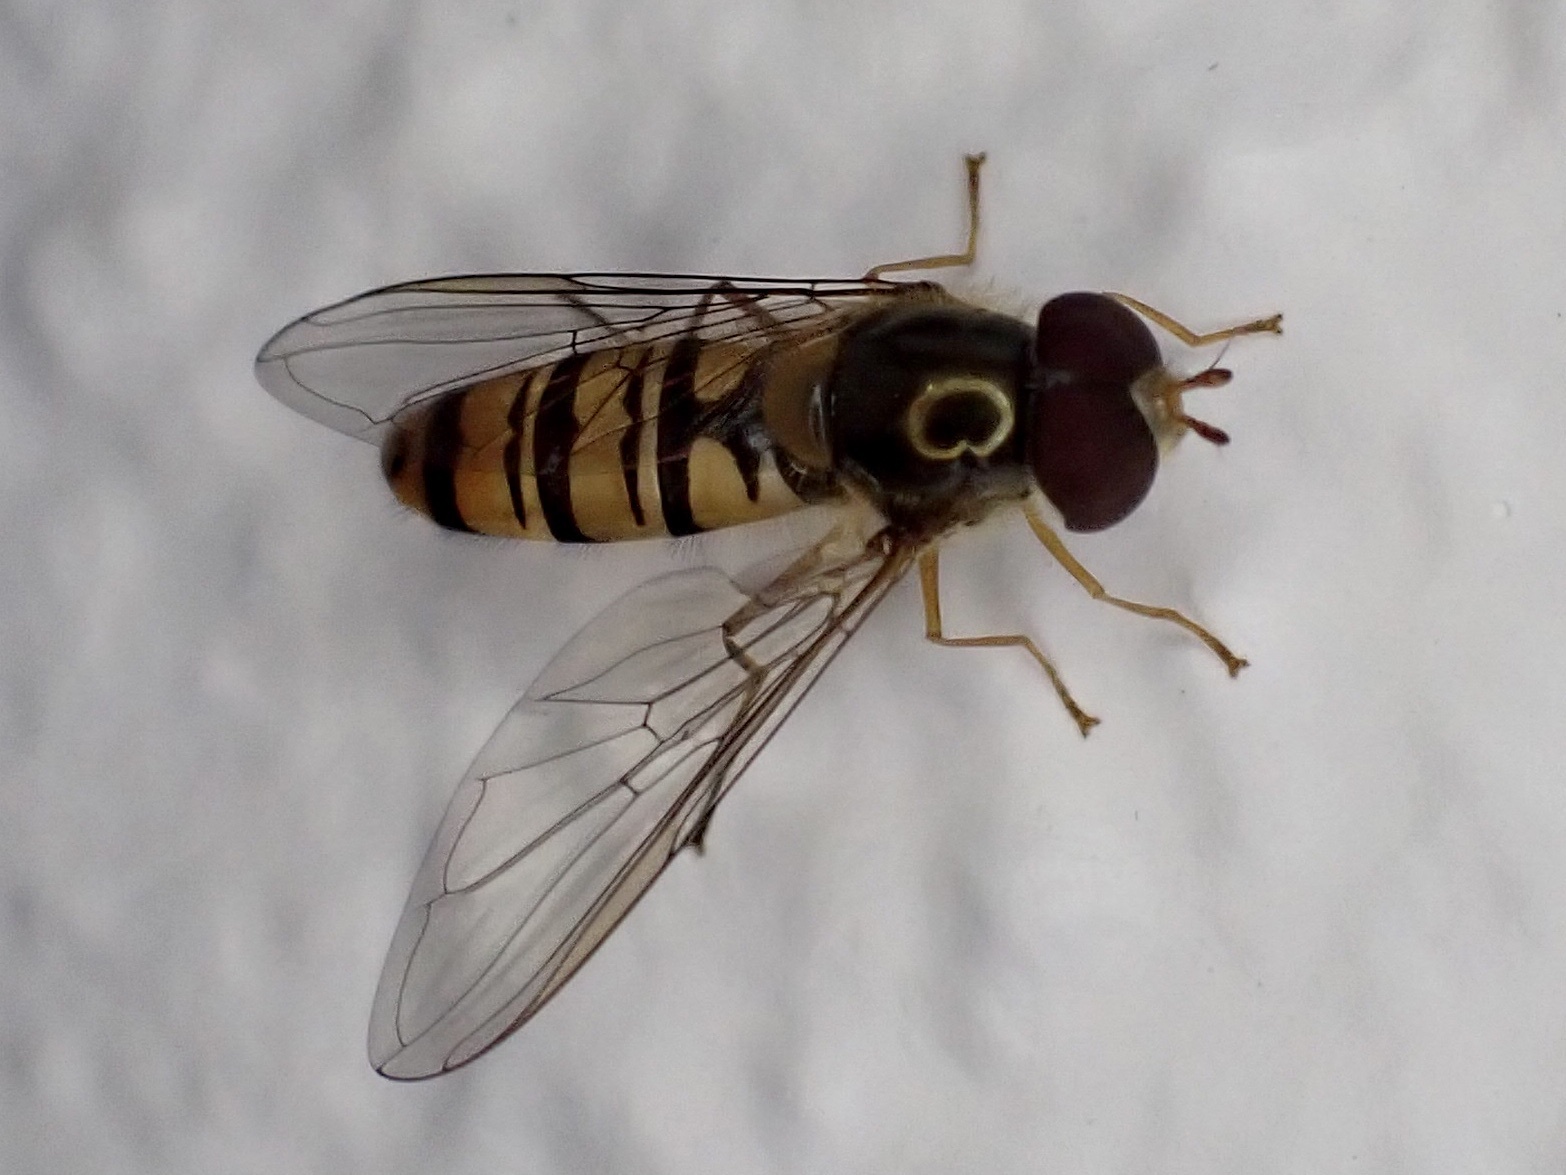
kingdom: Animalia
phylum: Arthropoda
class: Insecta
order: Diptera
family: Syrphidae
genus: Episyrphus
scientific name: Episyrphus balteatus
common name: Marmalade hoverfly
